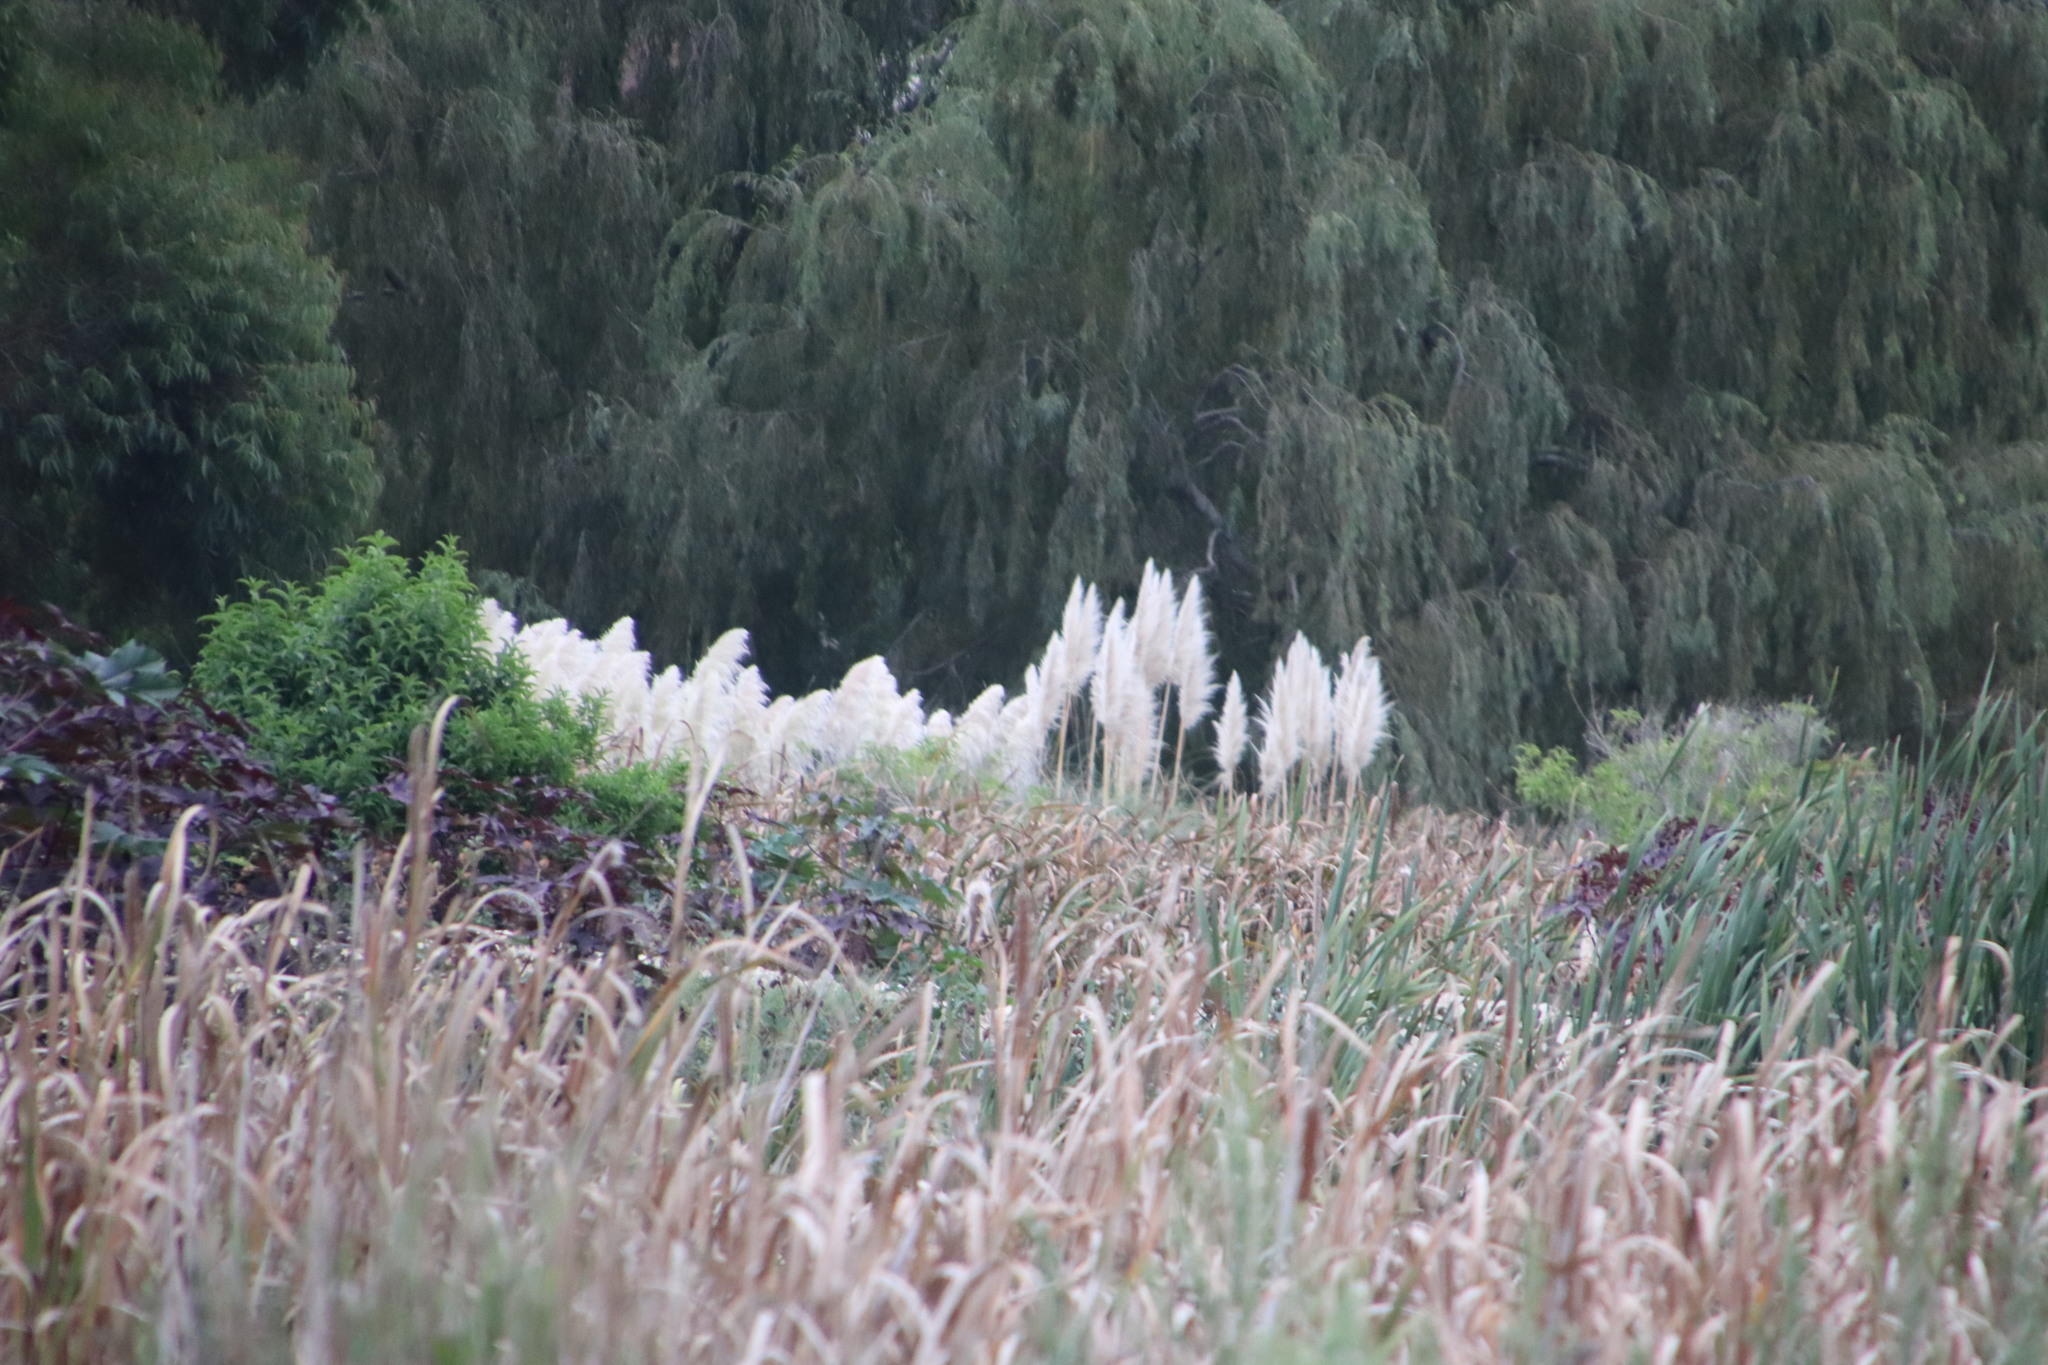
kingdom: Plantae
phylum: Tracheophyta
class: Liliopsida
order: Poales
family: Poaceae
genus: Cortaderia
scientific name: Cortaderia selloana
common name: Uruguayan pampas grass
